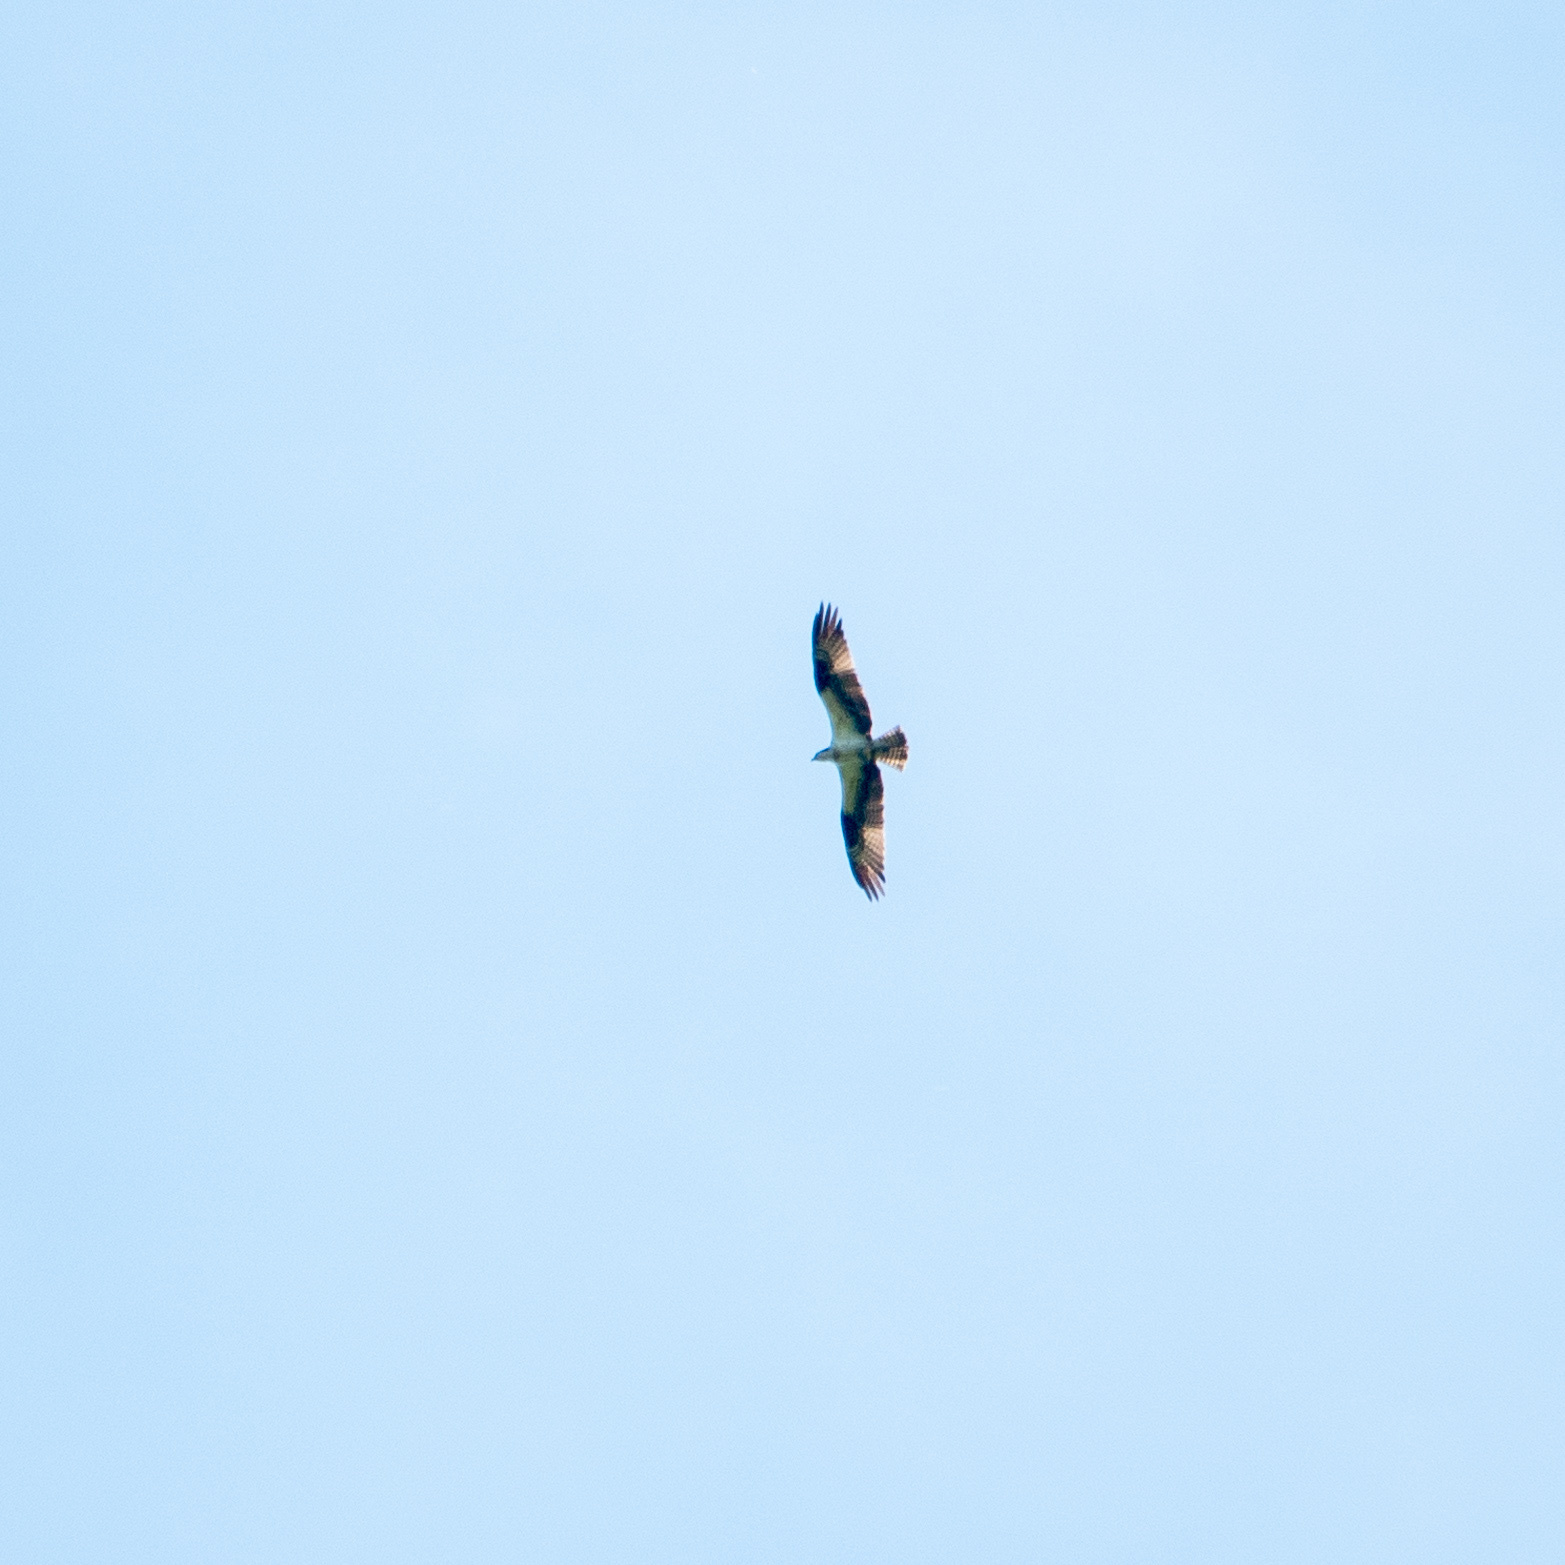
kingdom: Animalia
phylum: Chordata
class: Aves
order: Accipitriformes
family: Pandionidae
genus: Pandion
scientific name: Pandion haliaetus
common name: Osprey
